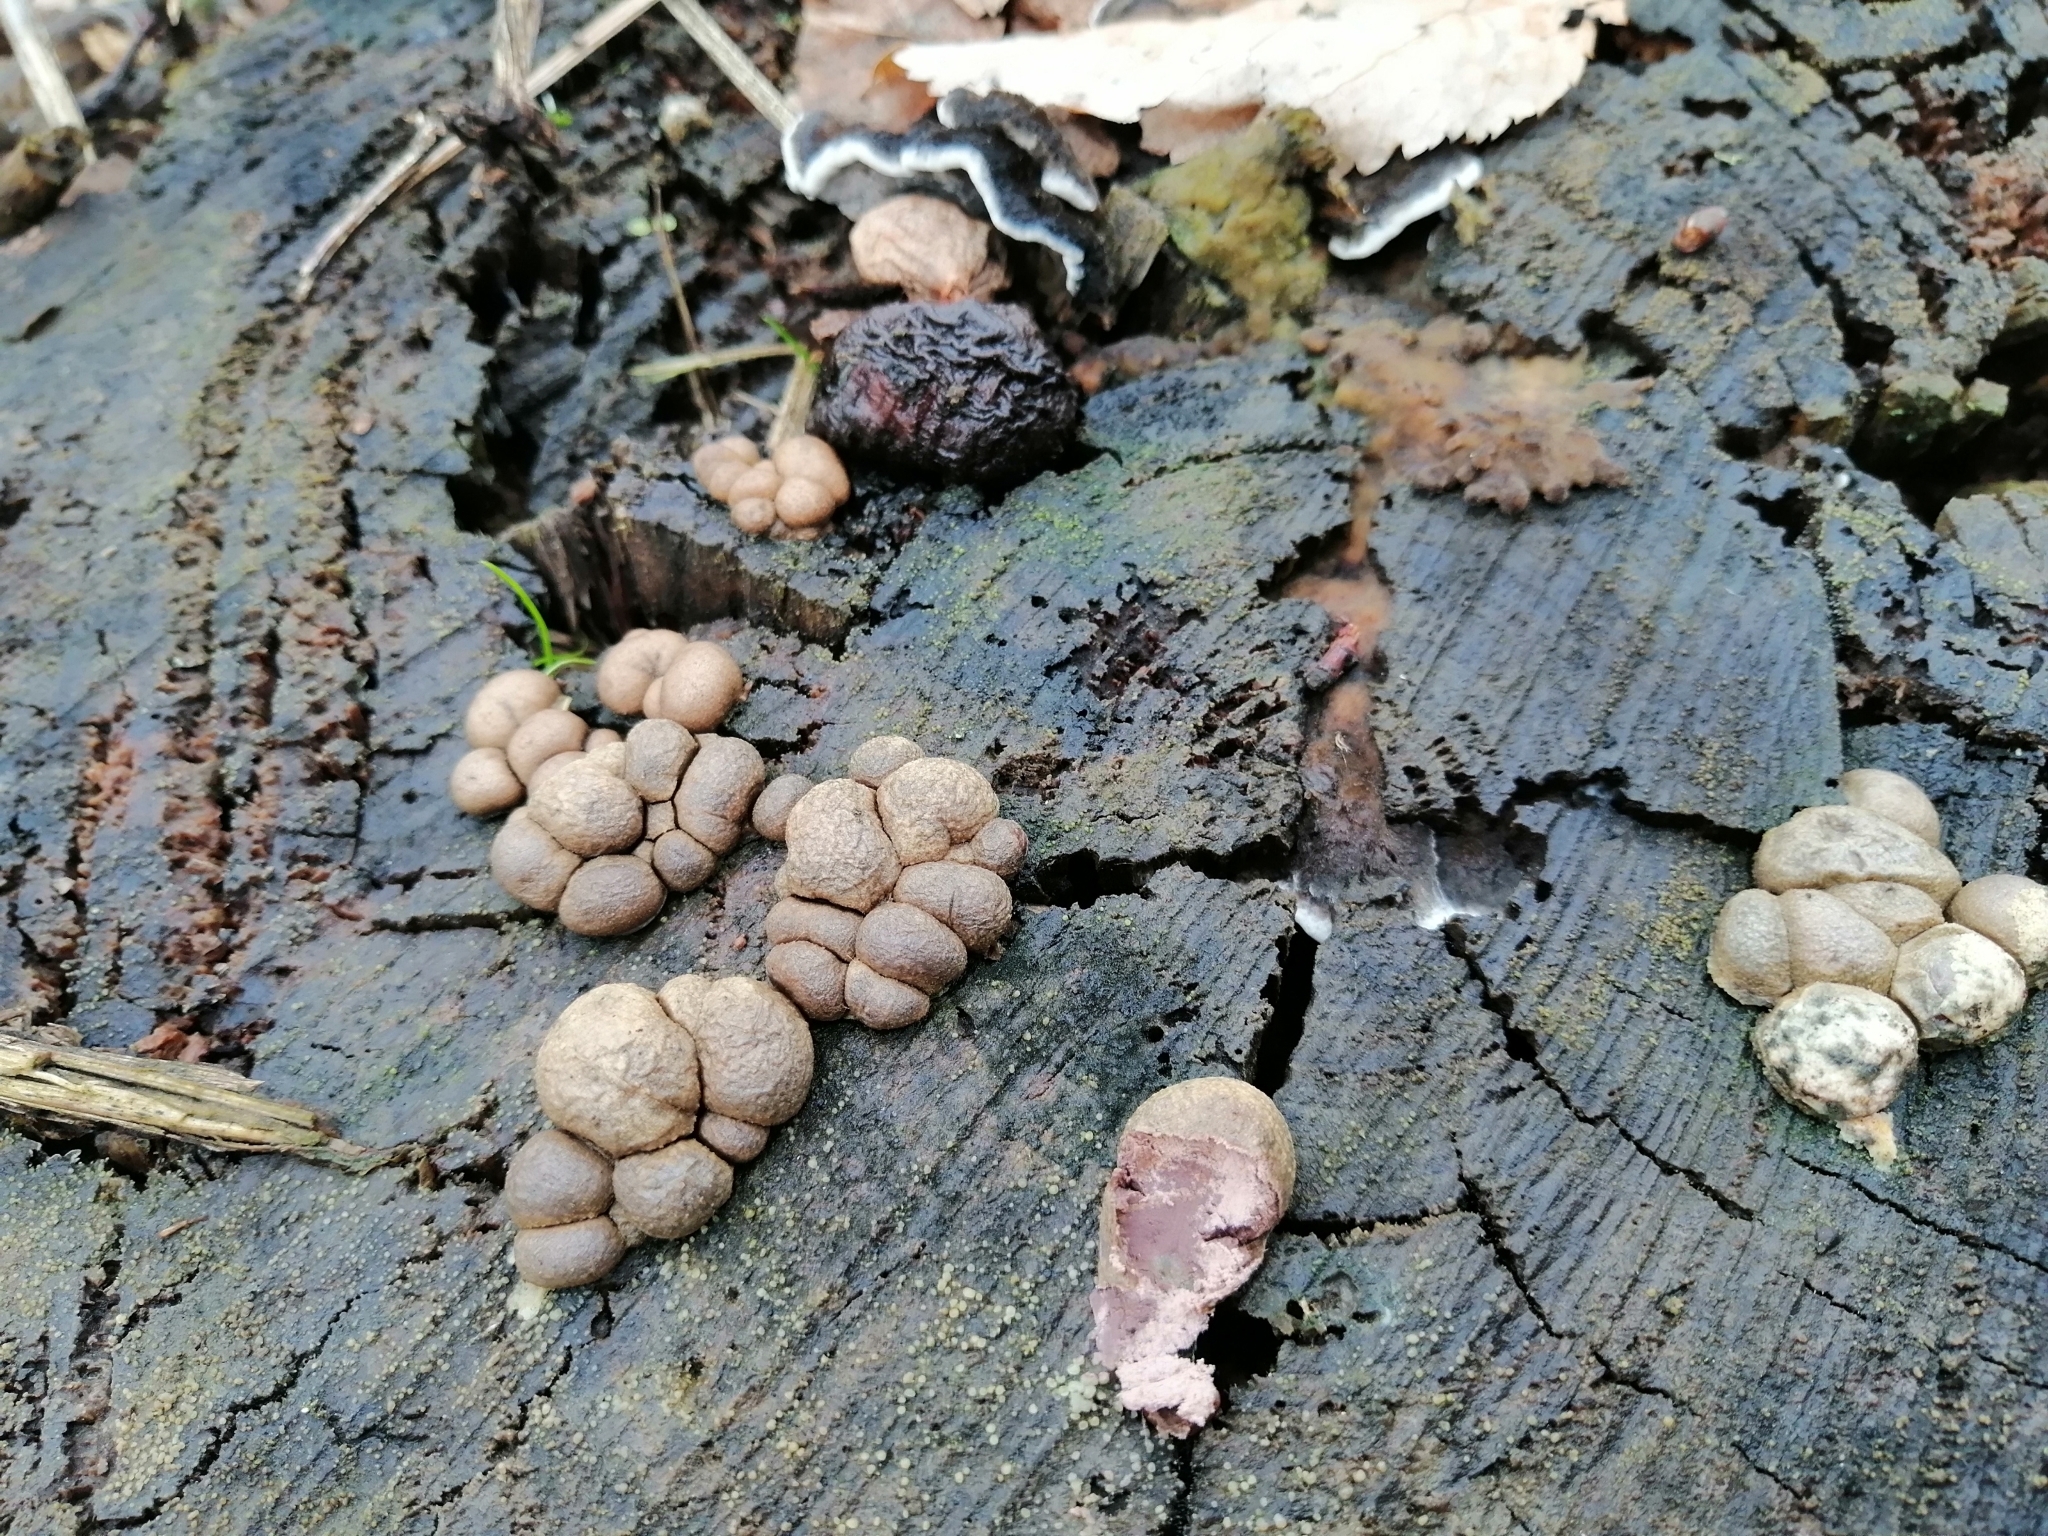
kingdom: Protozoa
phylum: Mycetozoa
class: Myxomycetes
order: Cribrariales
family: Tubiferaceae
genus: Lycogala
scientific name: Lycogala epidendrum
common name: Wolf's milk
